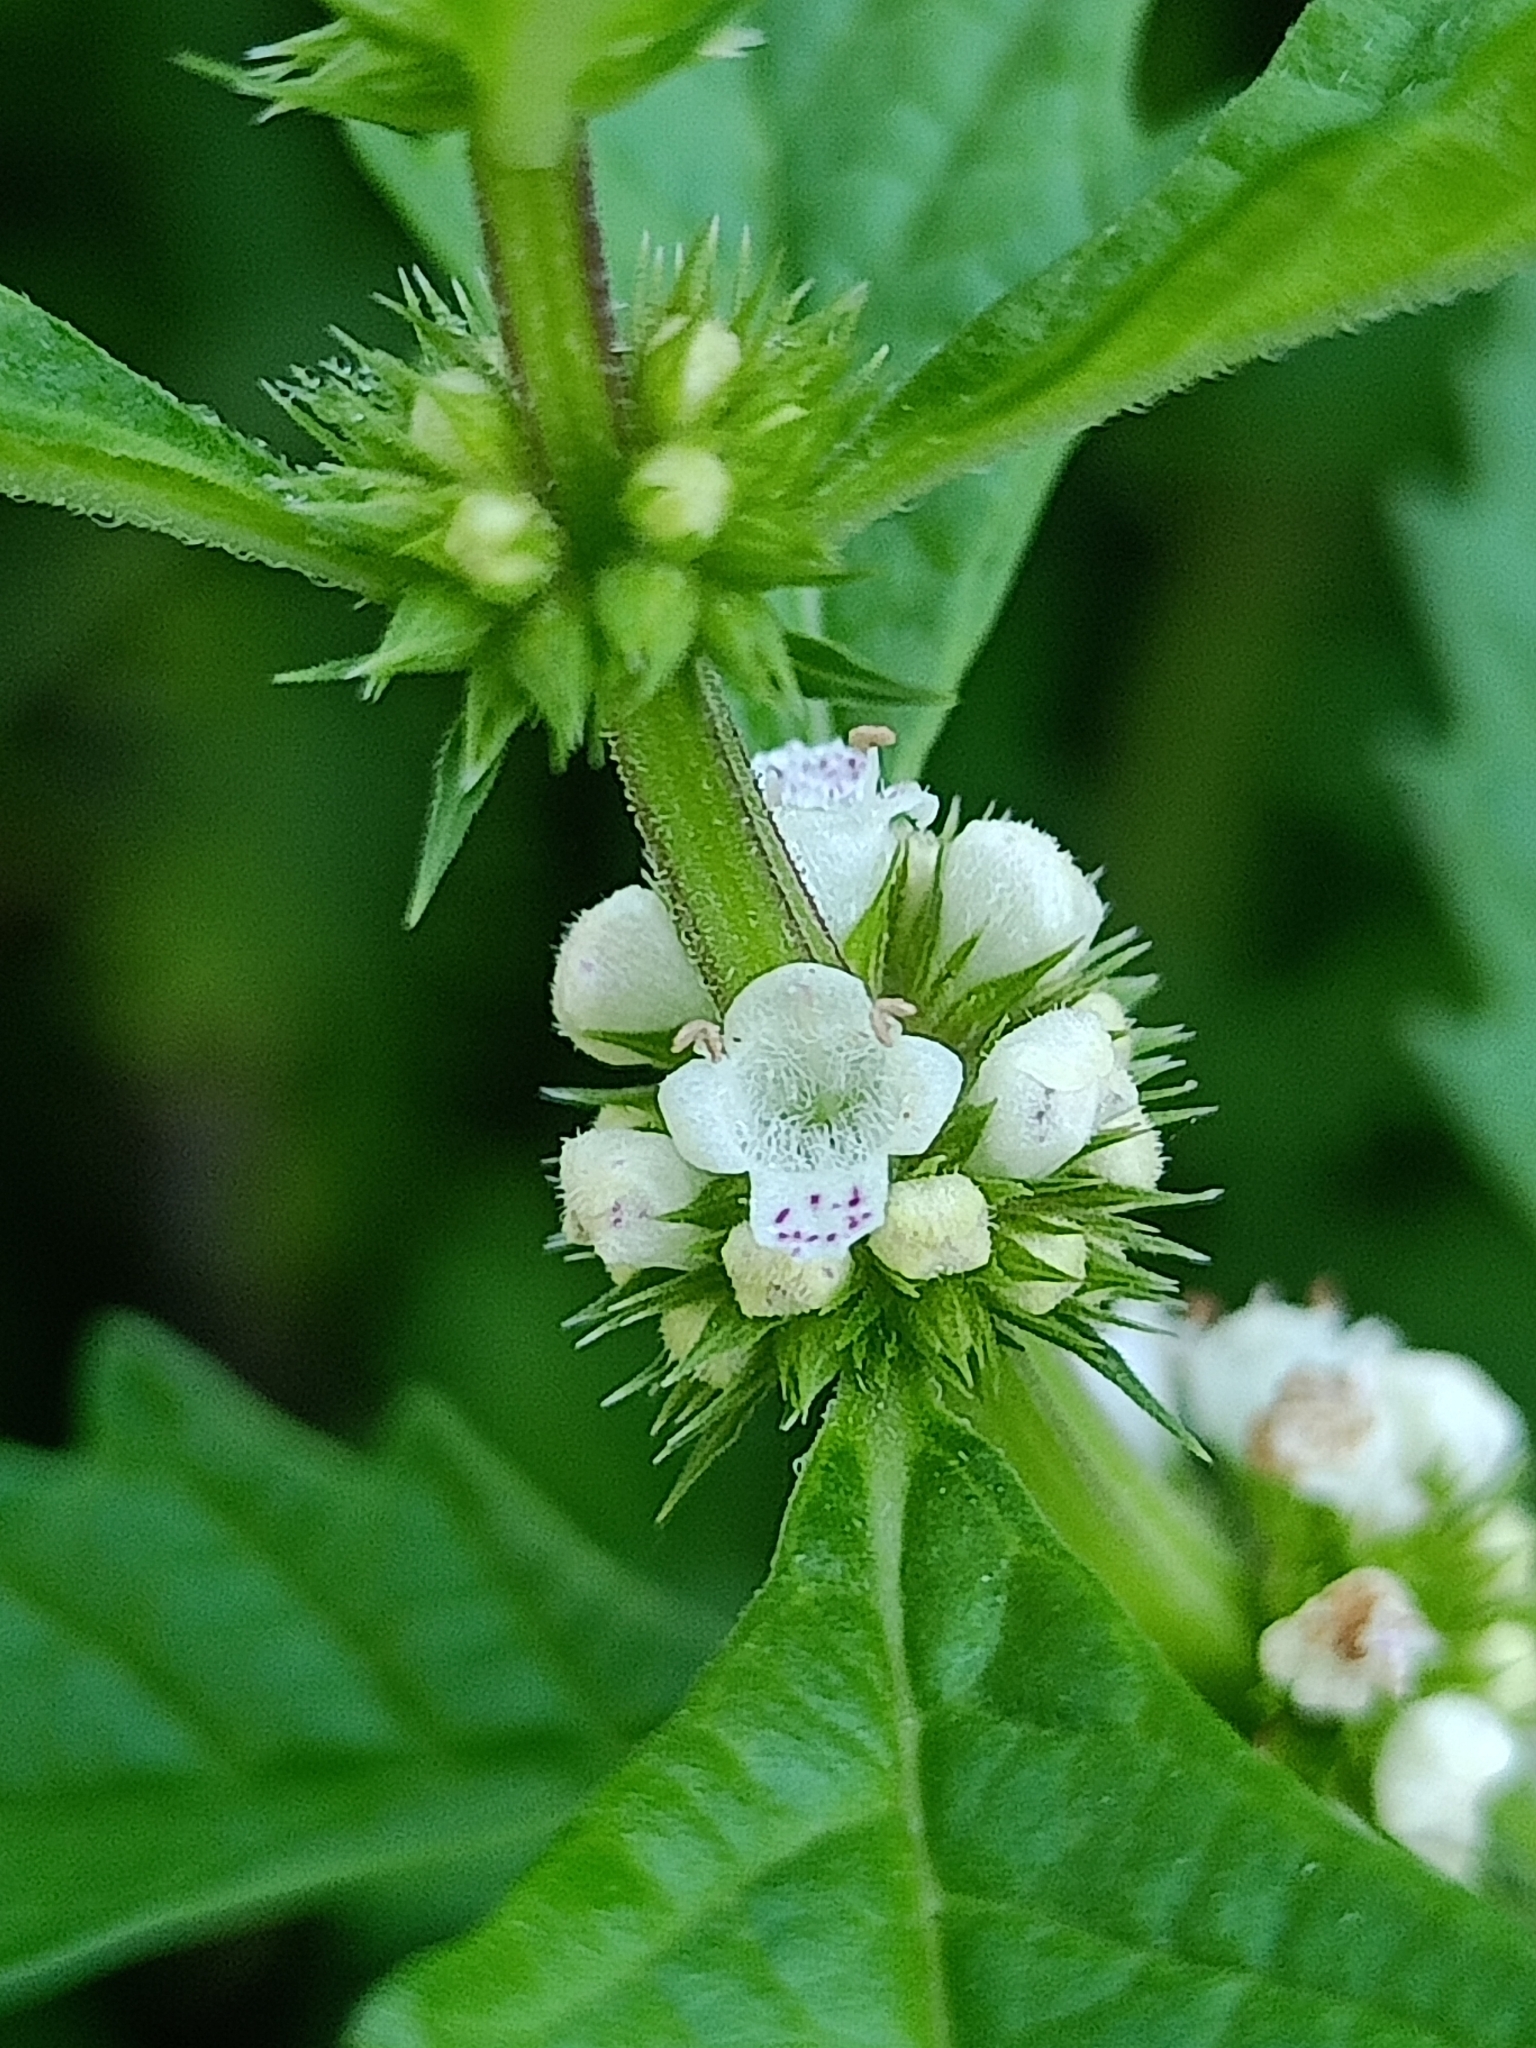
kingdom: Plantae
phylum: Tracheophyta
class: Magnoliopsida
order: Lamiales
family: Lamiaceae
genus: Lycopus
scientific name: Lycopus europaeus
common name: European bugleweed
